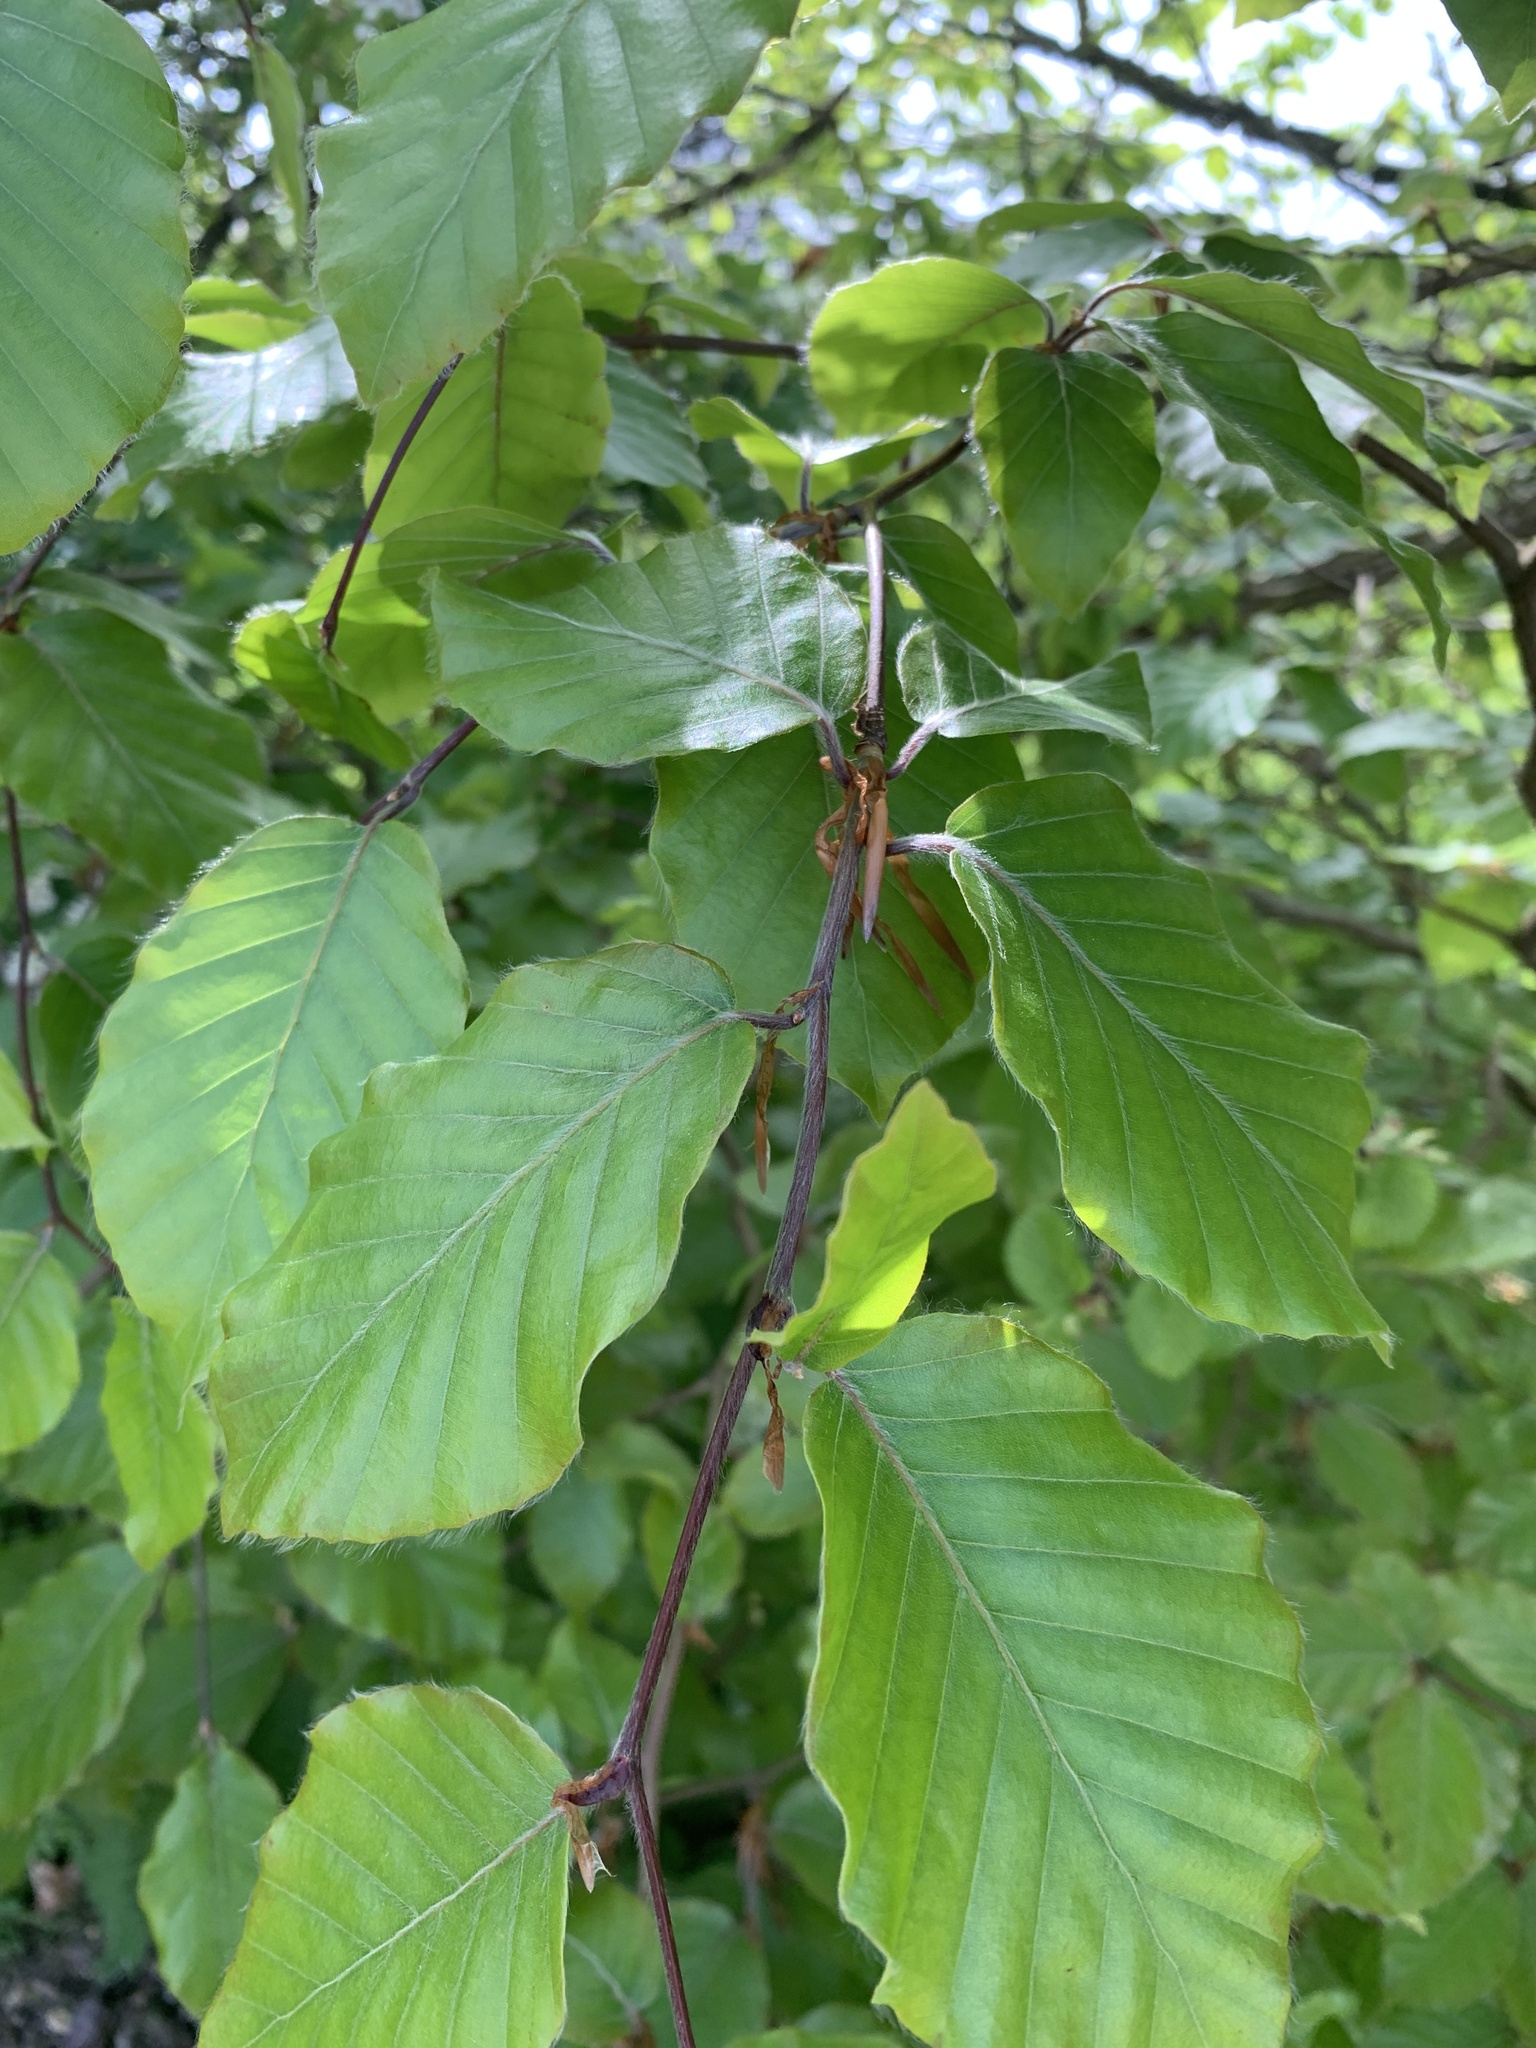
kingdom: Plantae
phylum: Tracheophyta
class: Magnoliopsida
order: Fagales
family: Fagaceae
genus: Fagus
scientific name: Fagus sylvatica
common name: Beech
